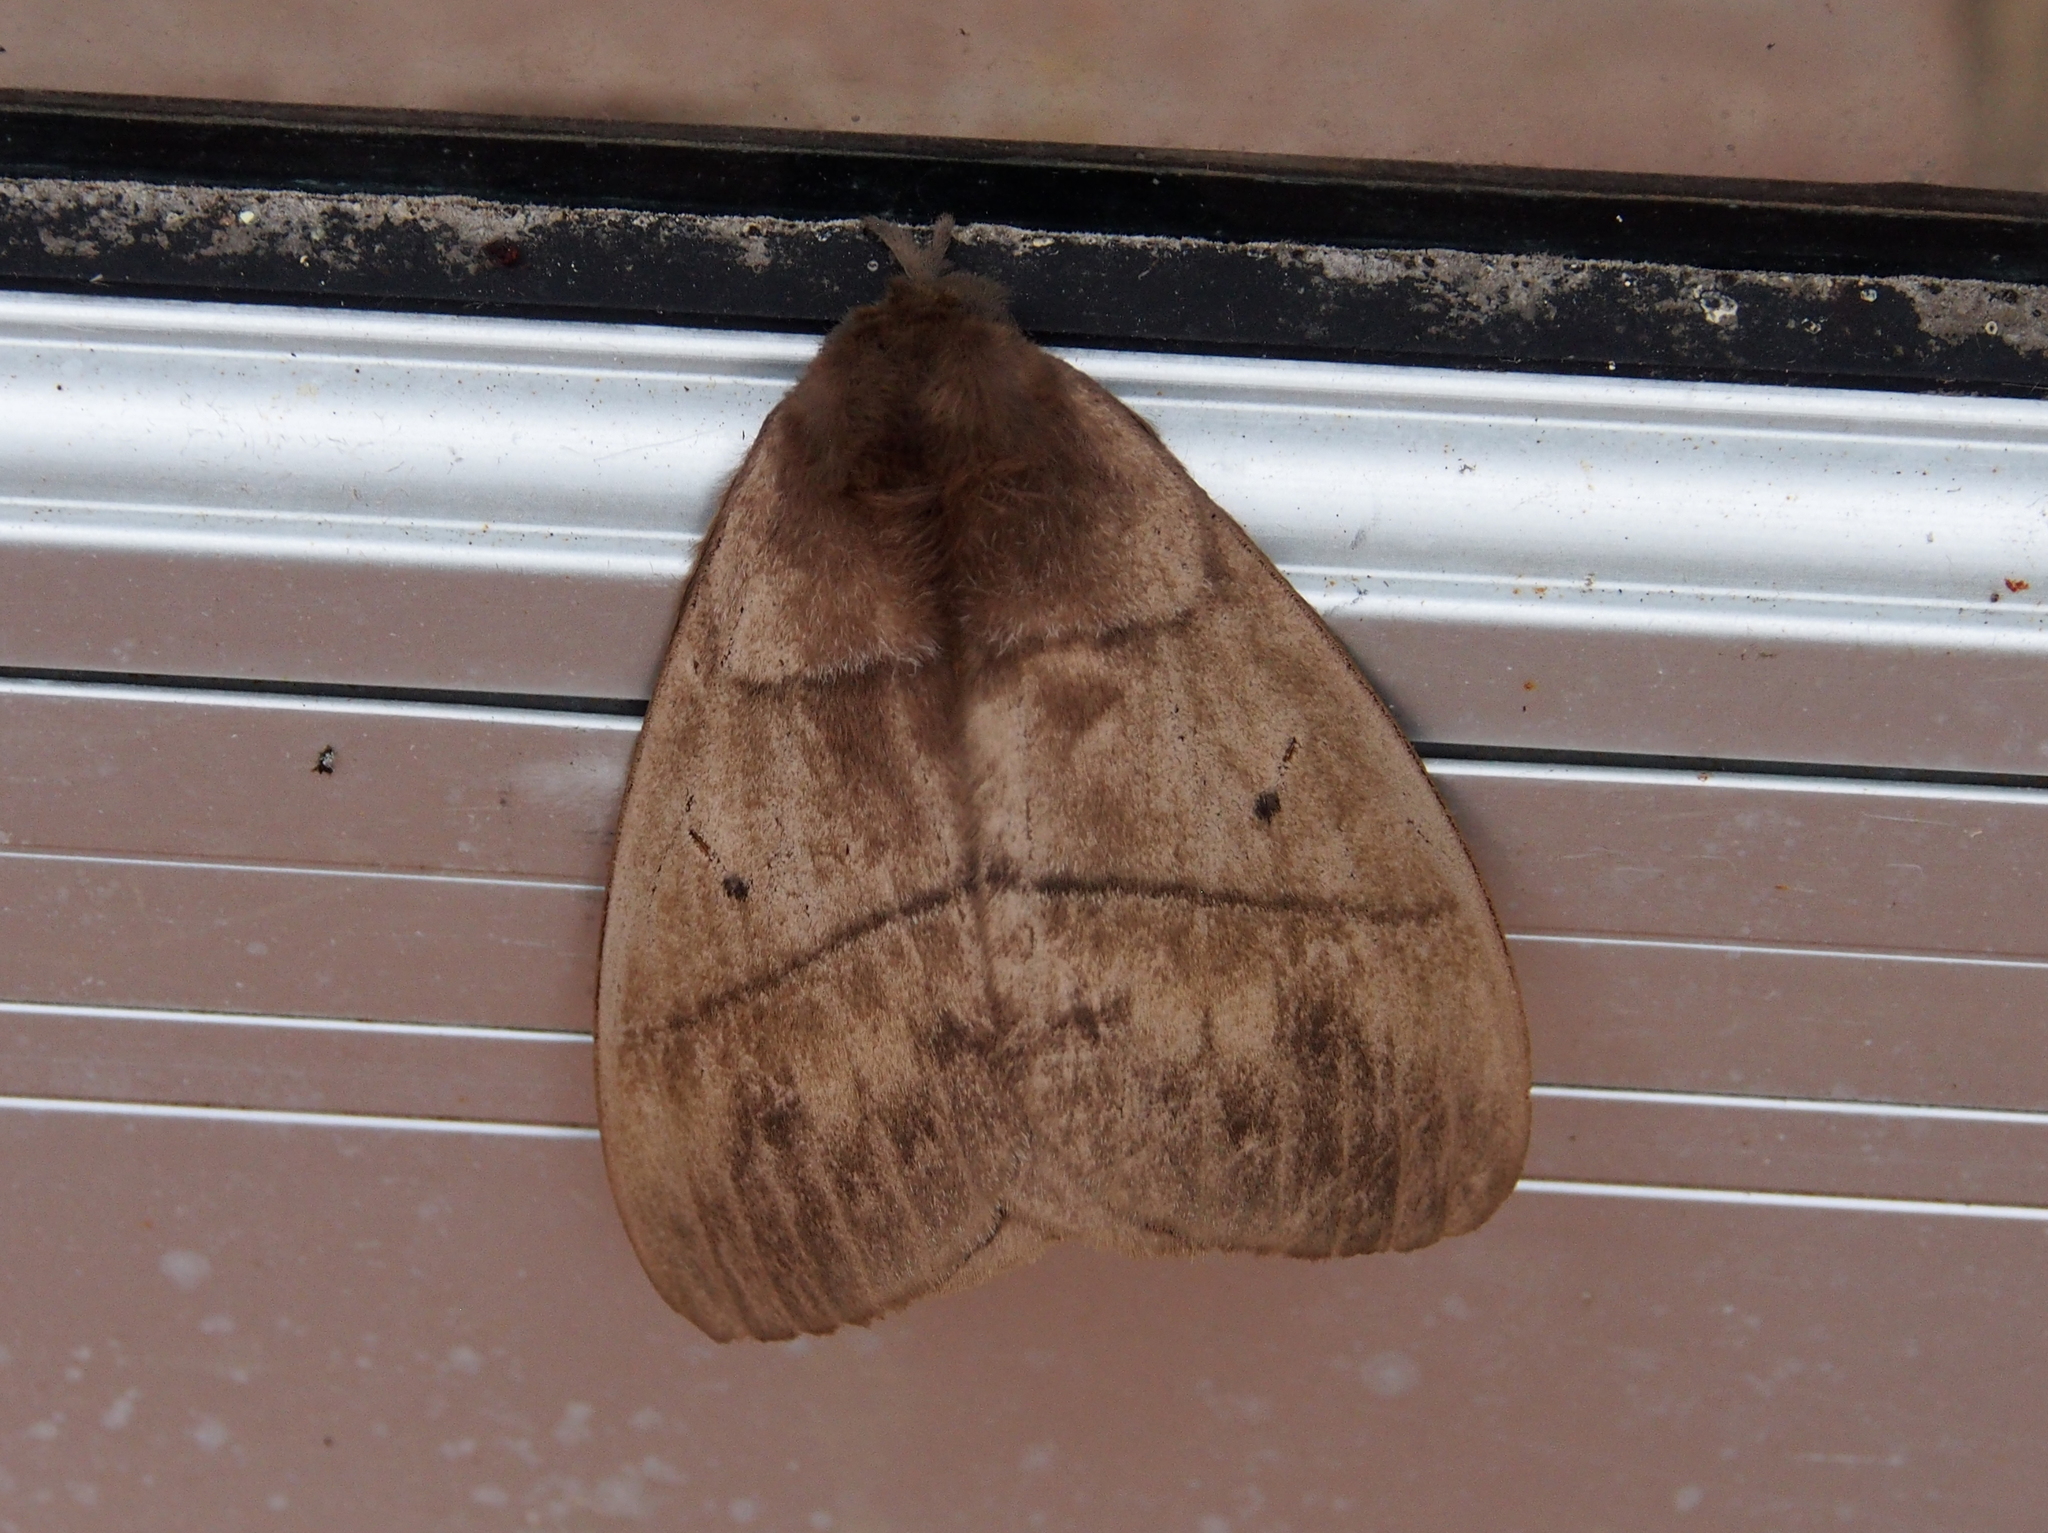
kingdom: Animalia
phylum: Arthropoda
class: Insecta
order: Lepidoptera
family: Saturniidae
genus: Periphoba
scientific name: Periphoba arcaei
